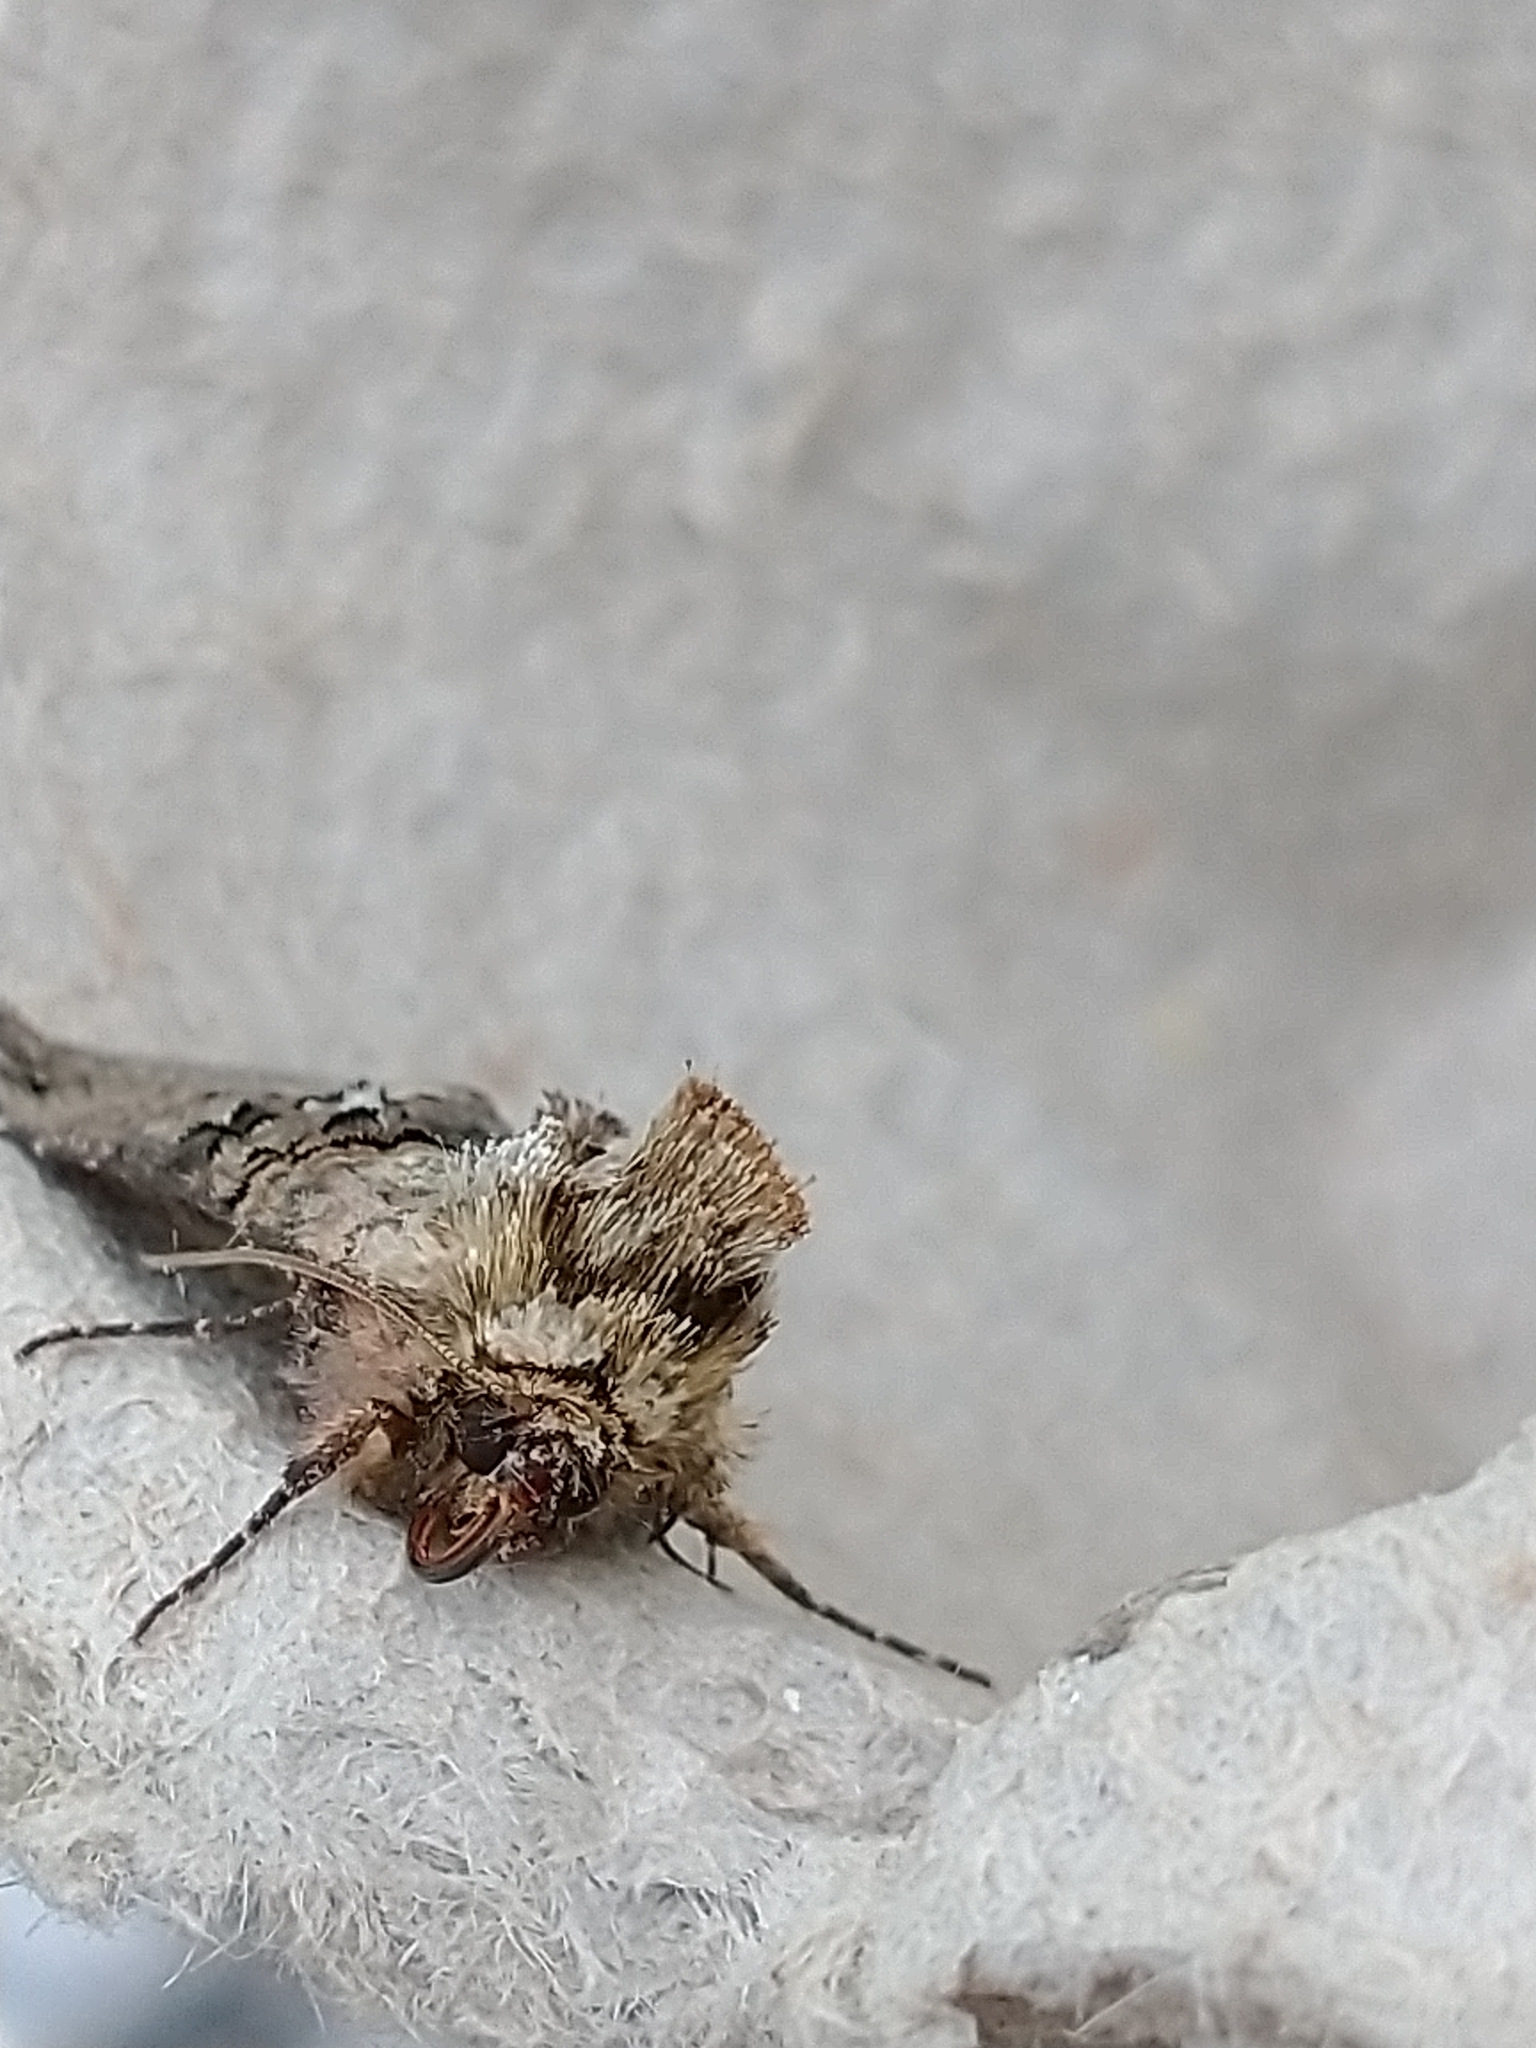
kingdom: Animalia
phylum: Arthropoda
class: Insecta
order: Lepidoptera
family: Noctuidae
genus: Abrostola
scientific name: Abrostola tripartita
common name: Spectacle
